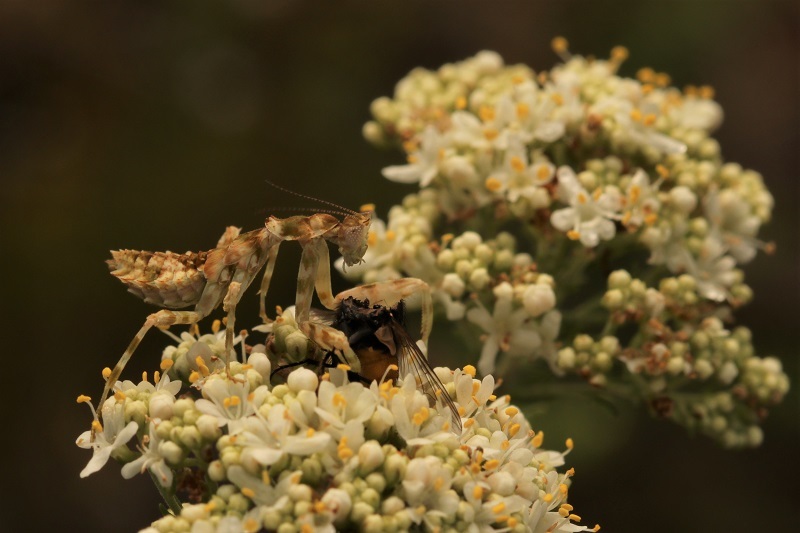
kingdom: Animalia
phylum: Arthropoda
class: Insecta
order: Mantodea
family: Galinthiadidae
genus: Harpagomantis
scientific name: Harpagomantis tricolor
